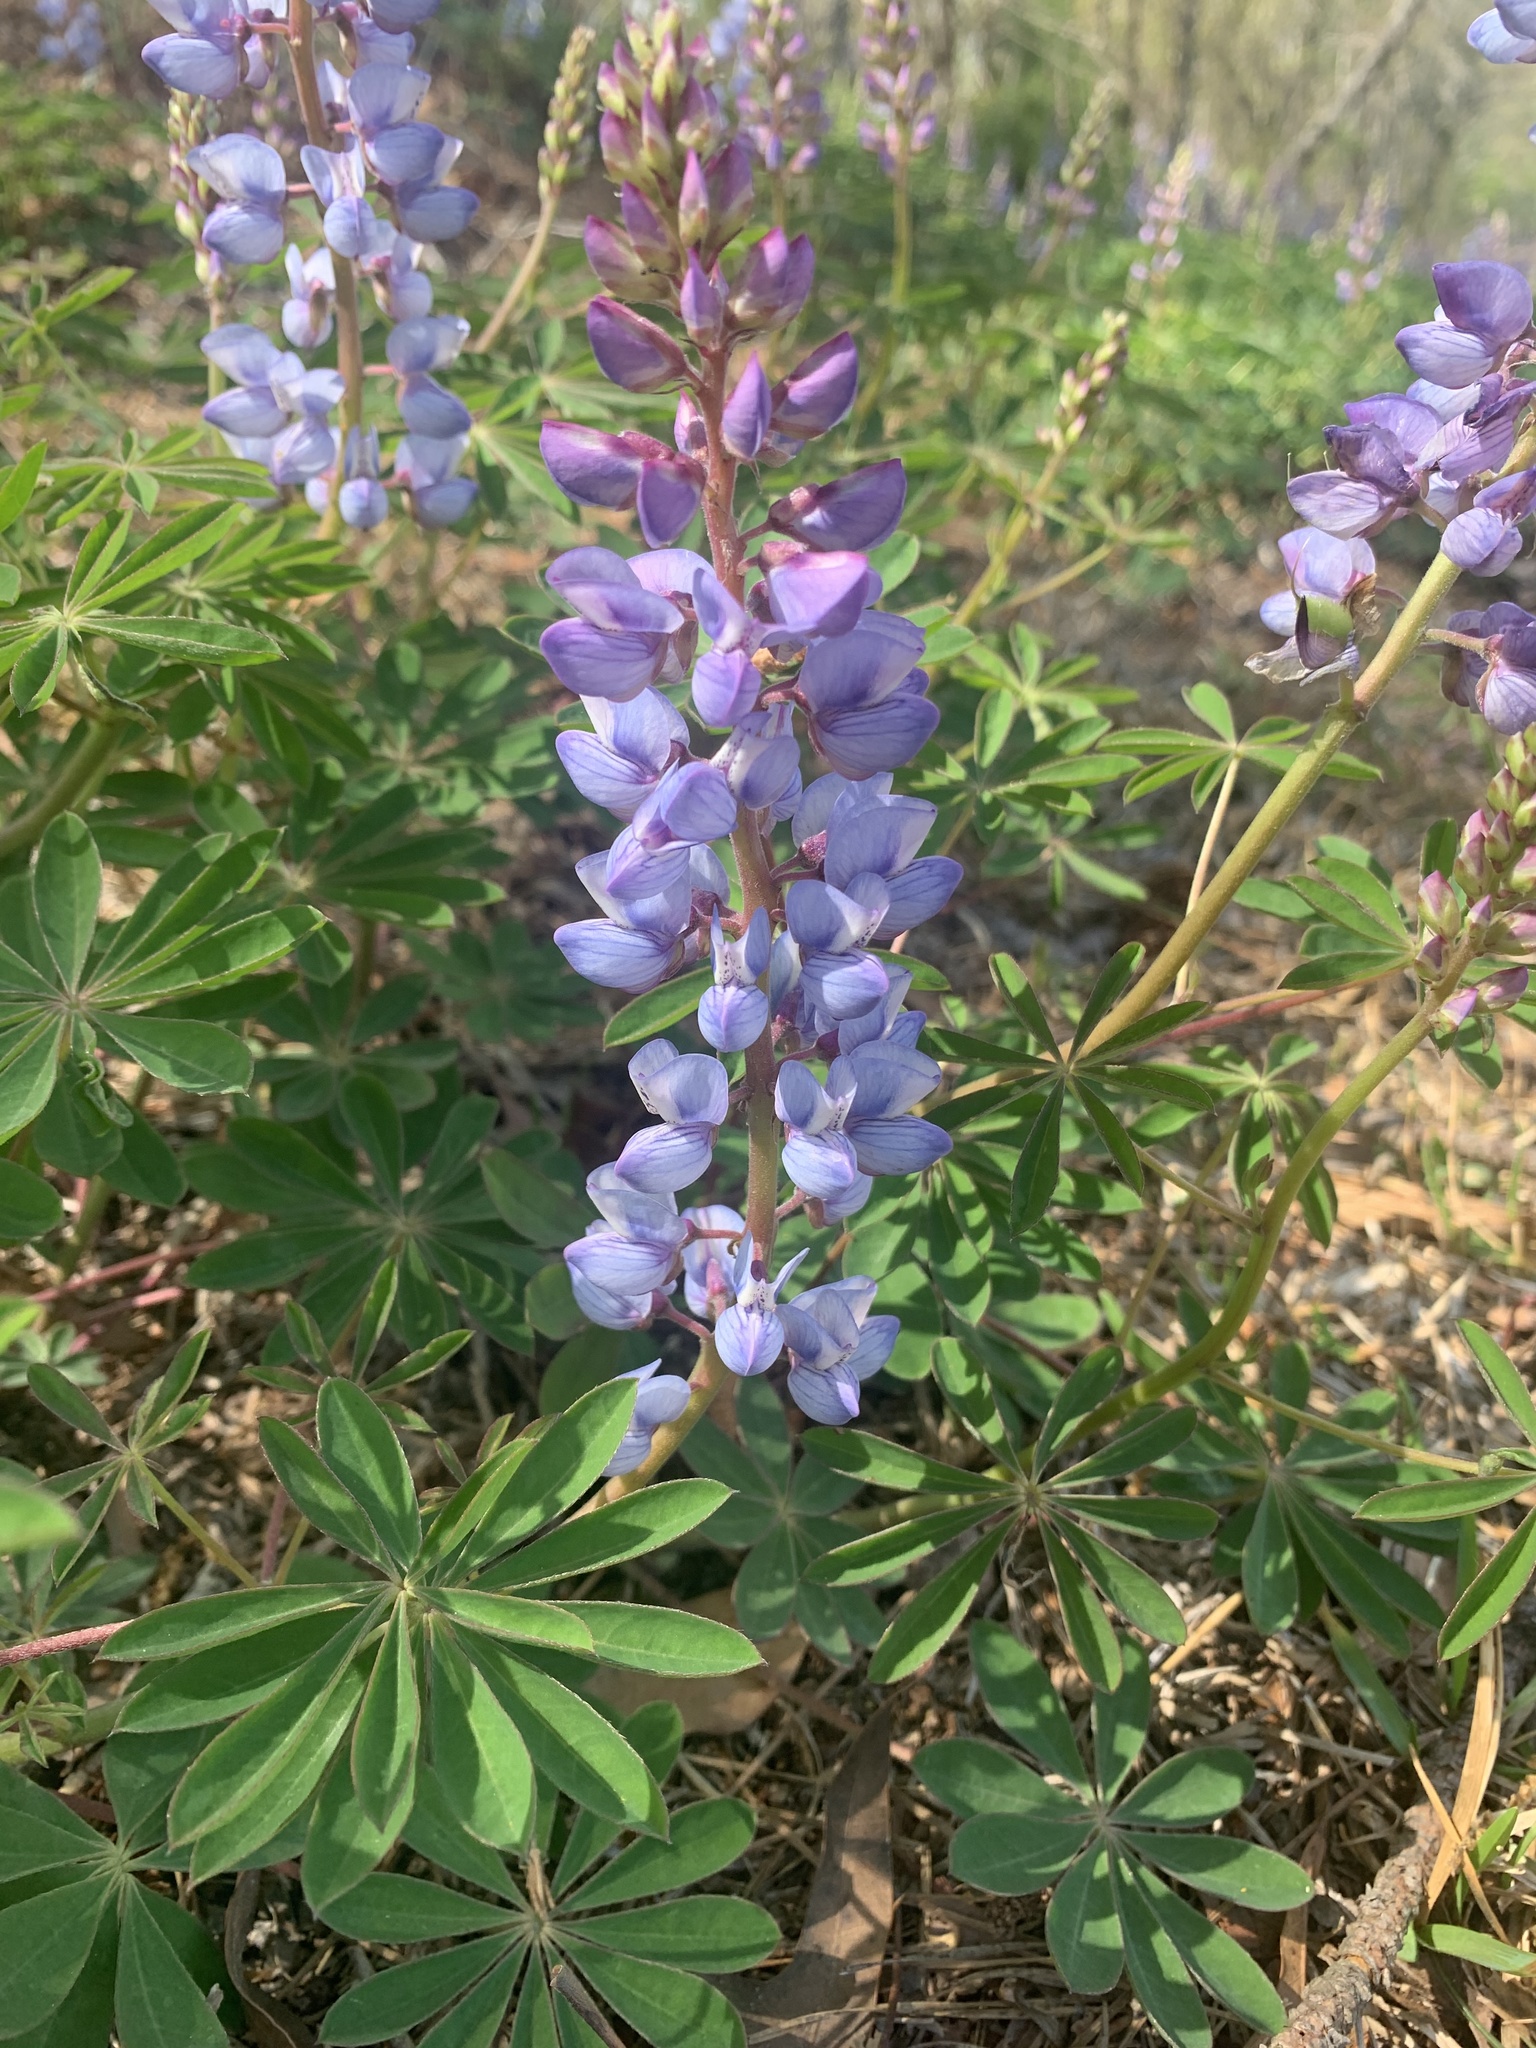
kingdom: Plantae
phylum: Tracheophyta
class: Magnoliopsida
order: Fabales
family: Fabaceae
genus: Lupinus
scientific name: Lupinus perennis
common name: Sundial lupine
